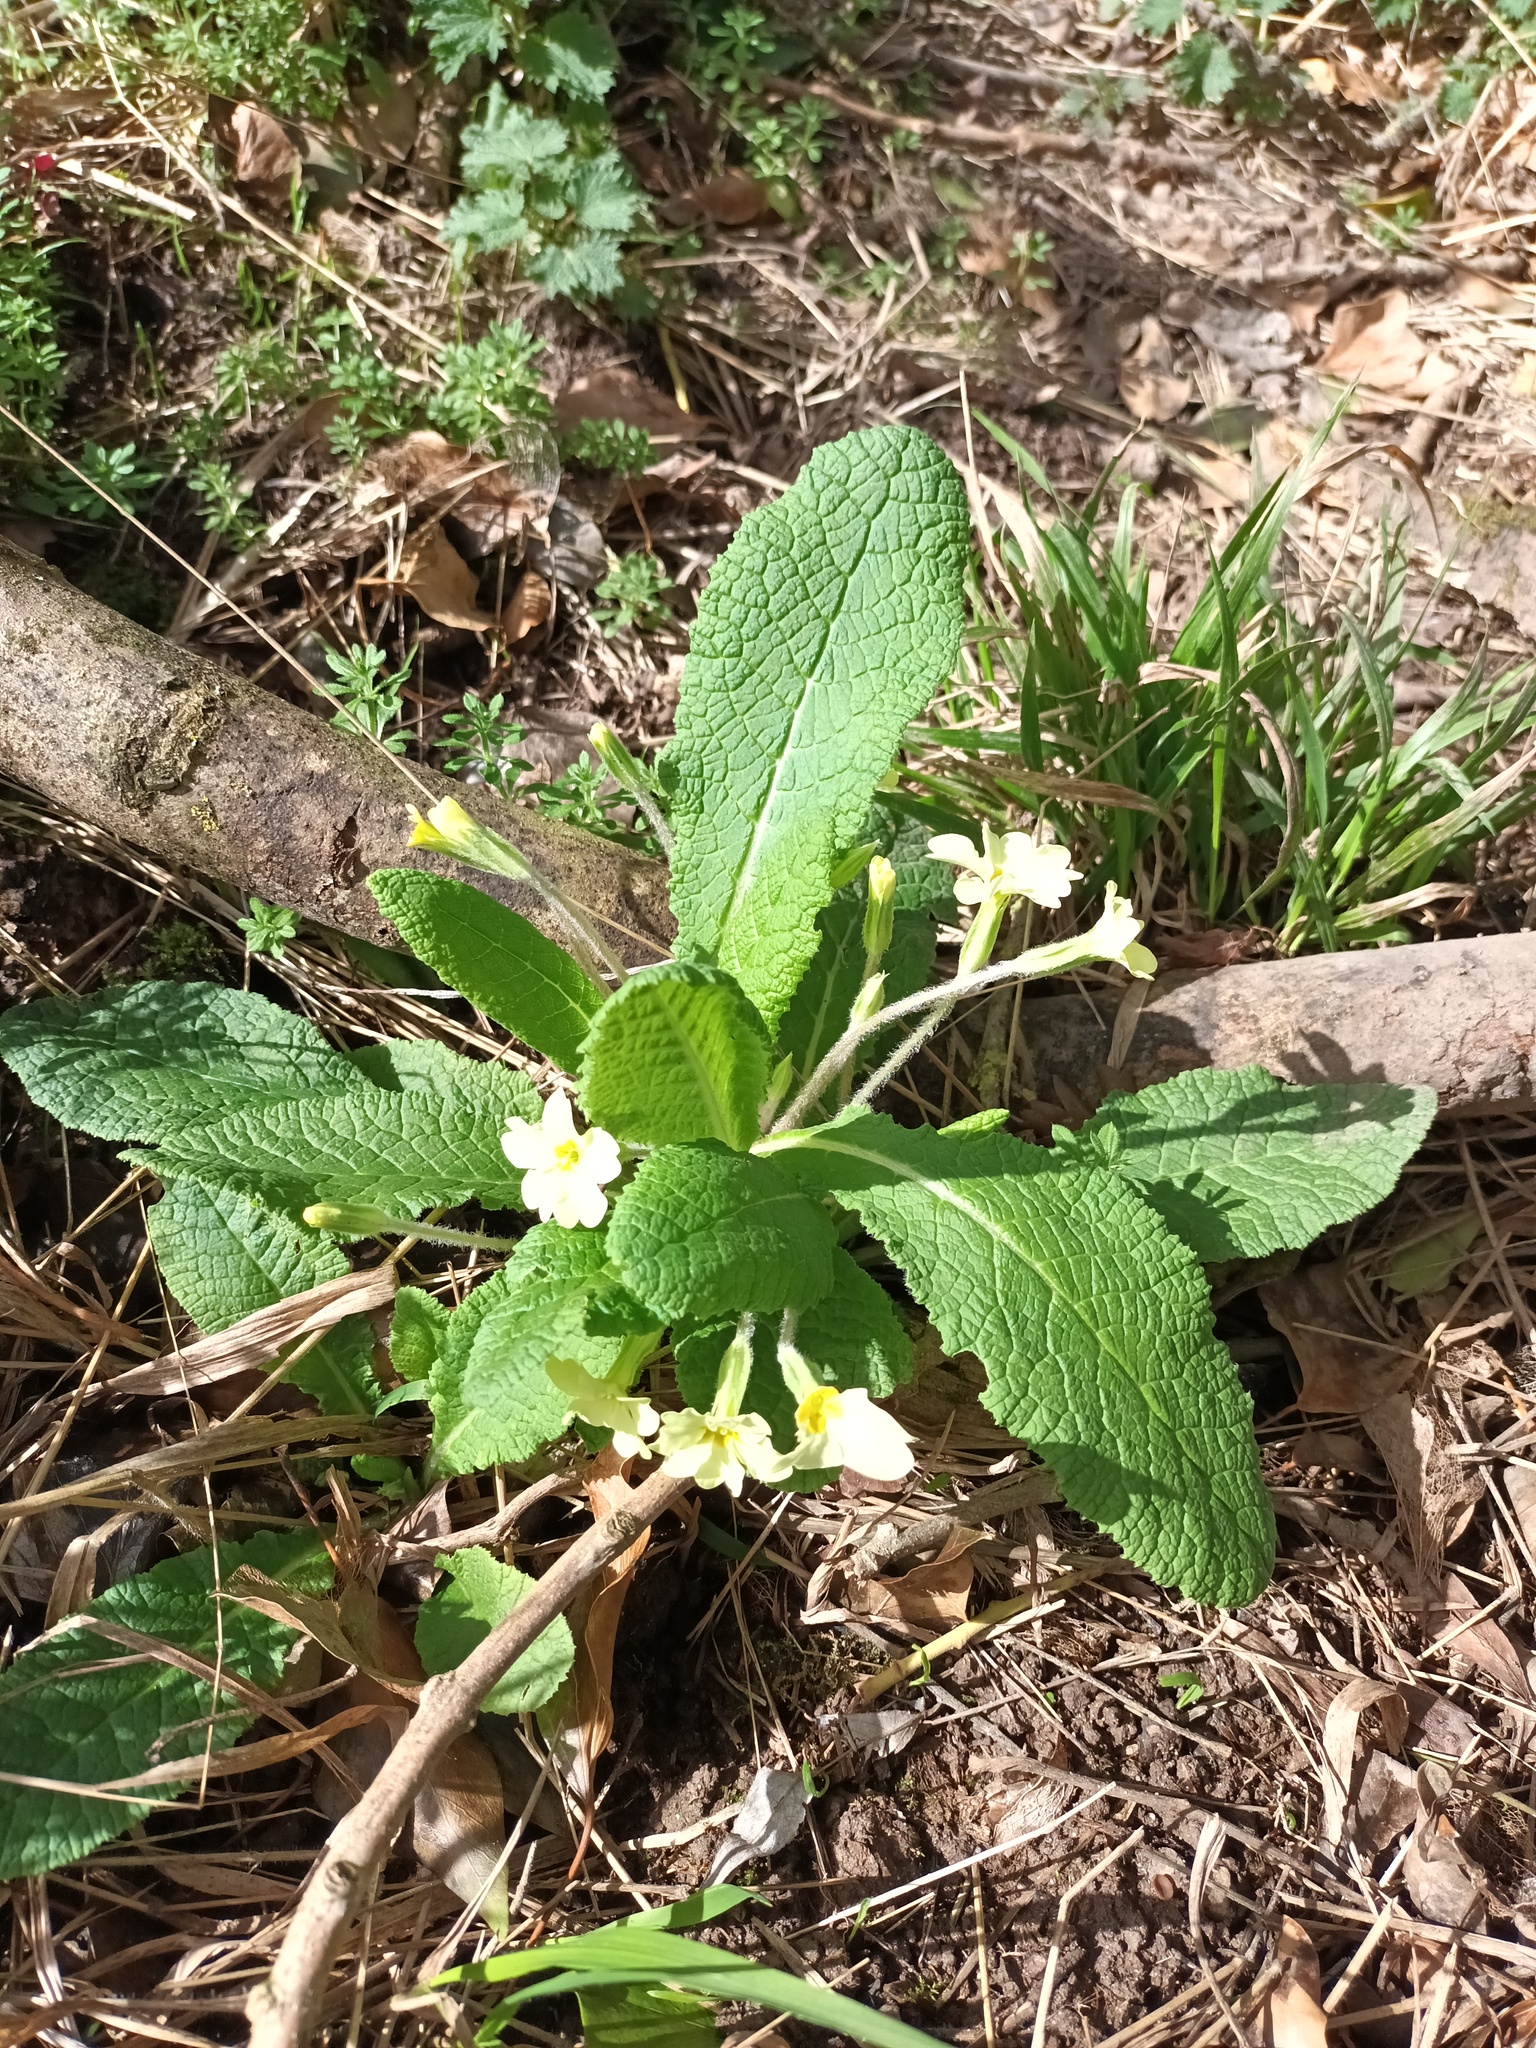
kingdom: Plantae
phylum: Tracheophyta
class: Magnoliopsida
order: Ericales
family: Primulaceae
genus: Primula
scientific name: Primula vulgaris
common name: Primrose
